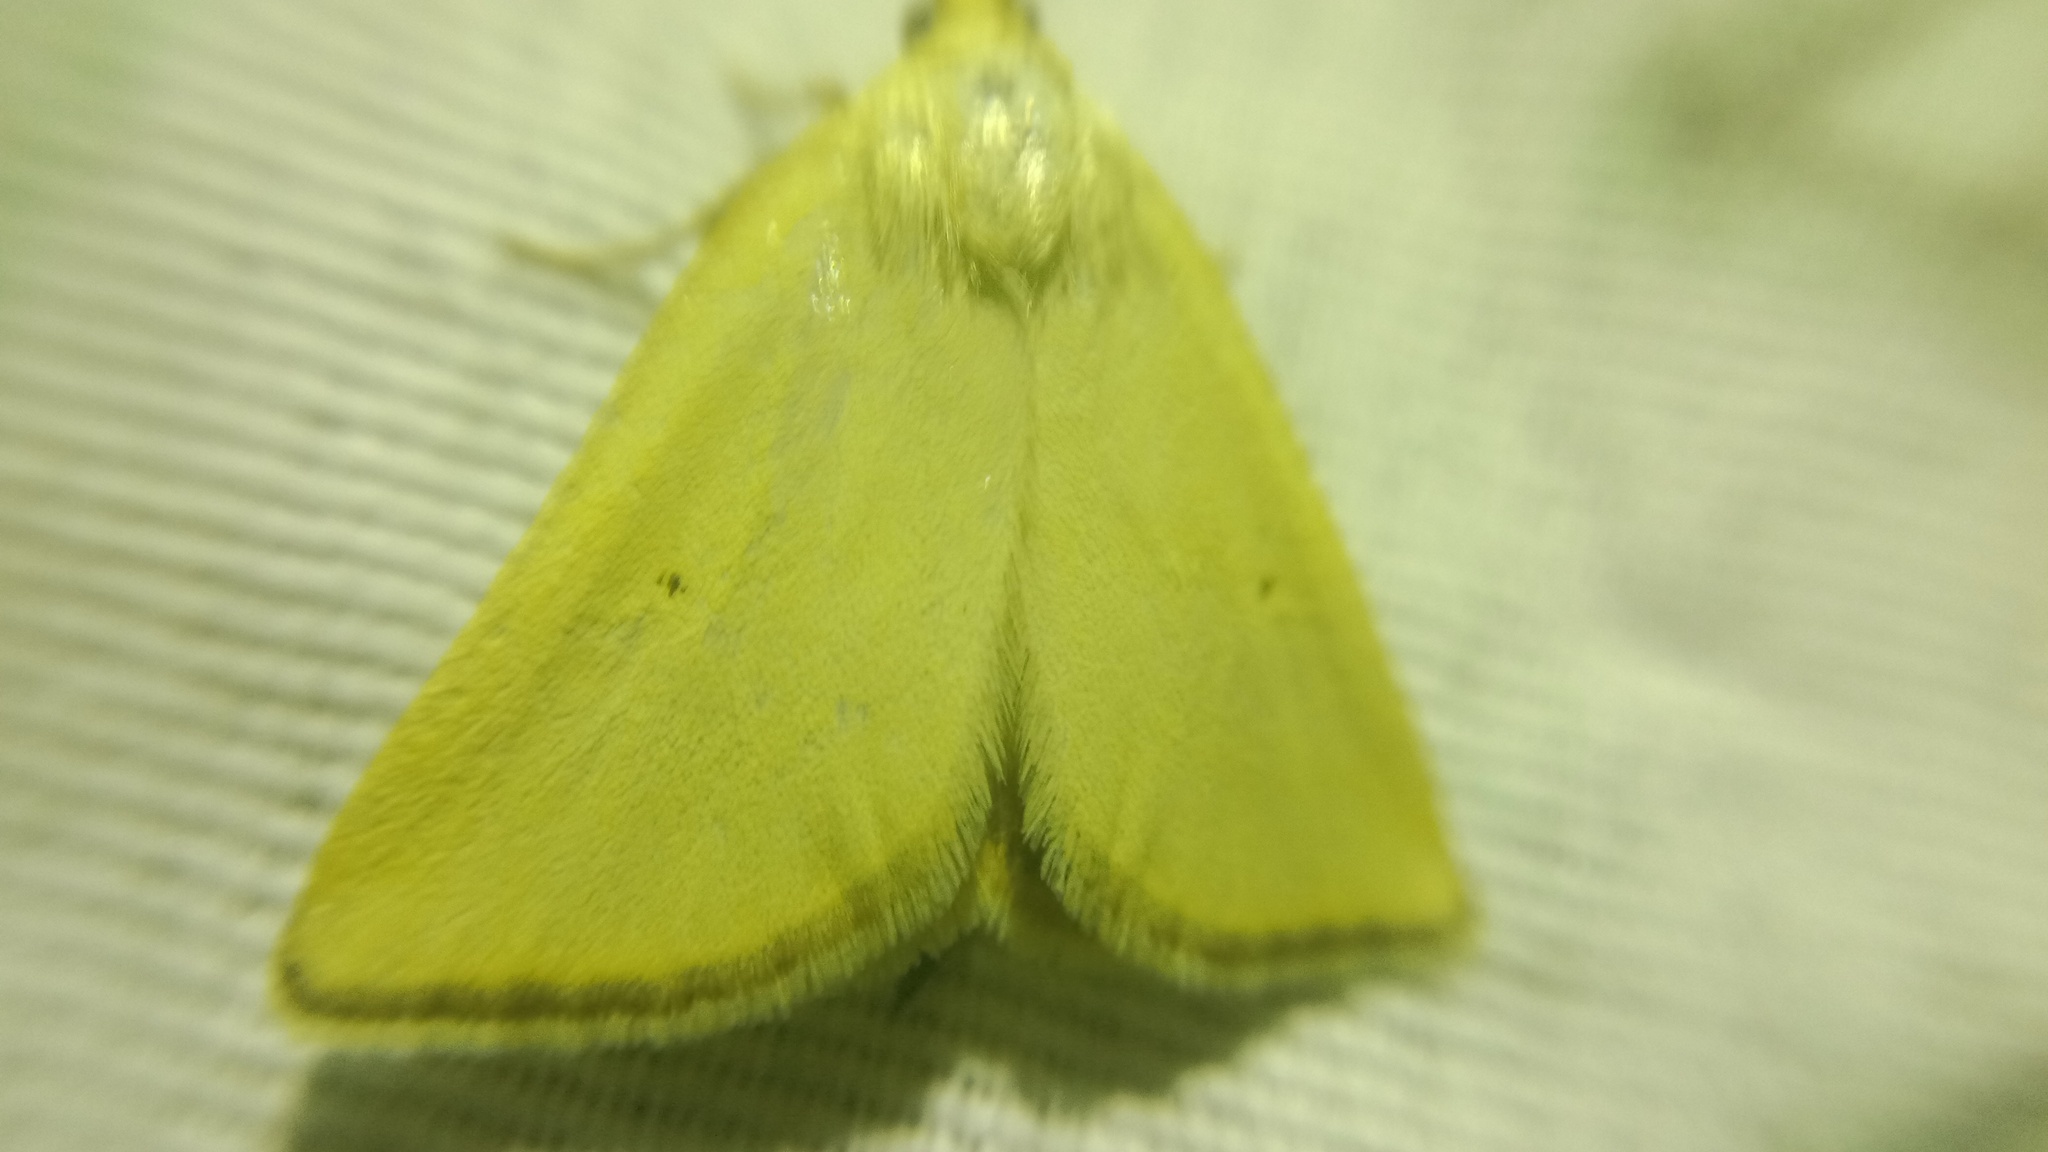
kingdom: Animalia
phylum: Arthropoda
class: Insecta
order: Lepidoptera
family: Noctuidae
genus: Aegle
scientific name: Aegle kaekeritziana
